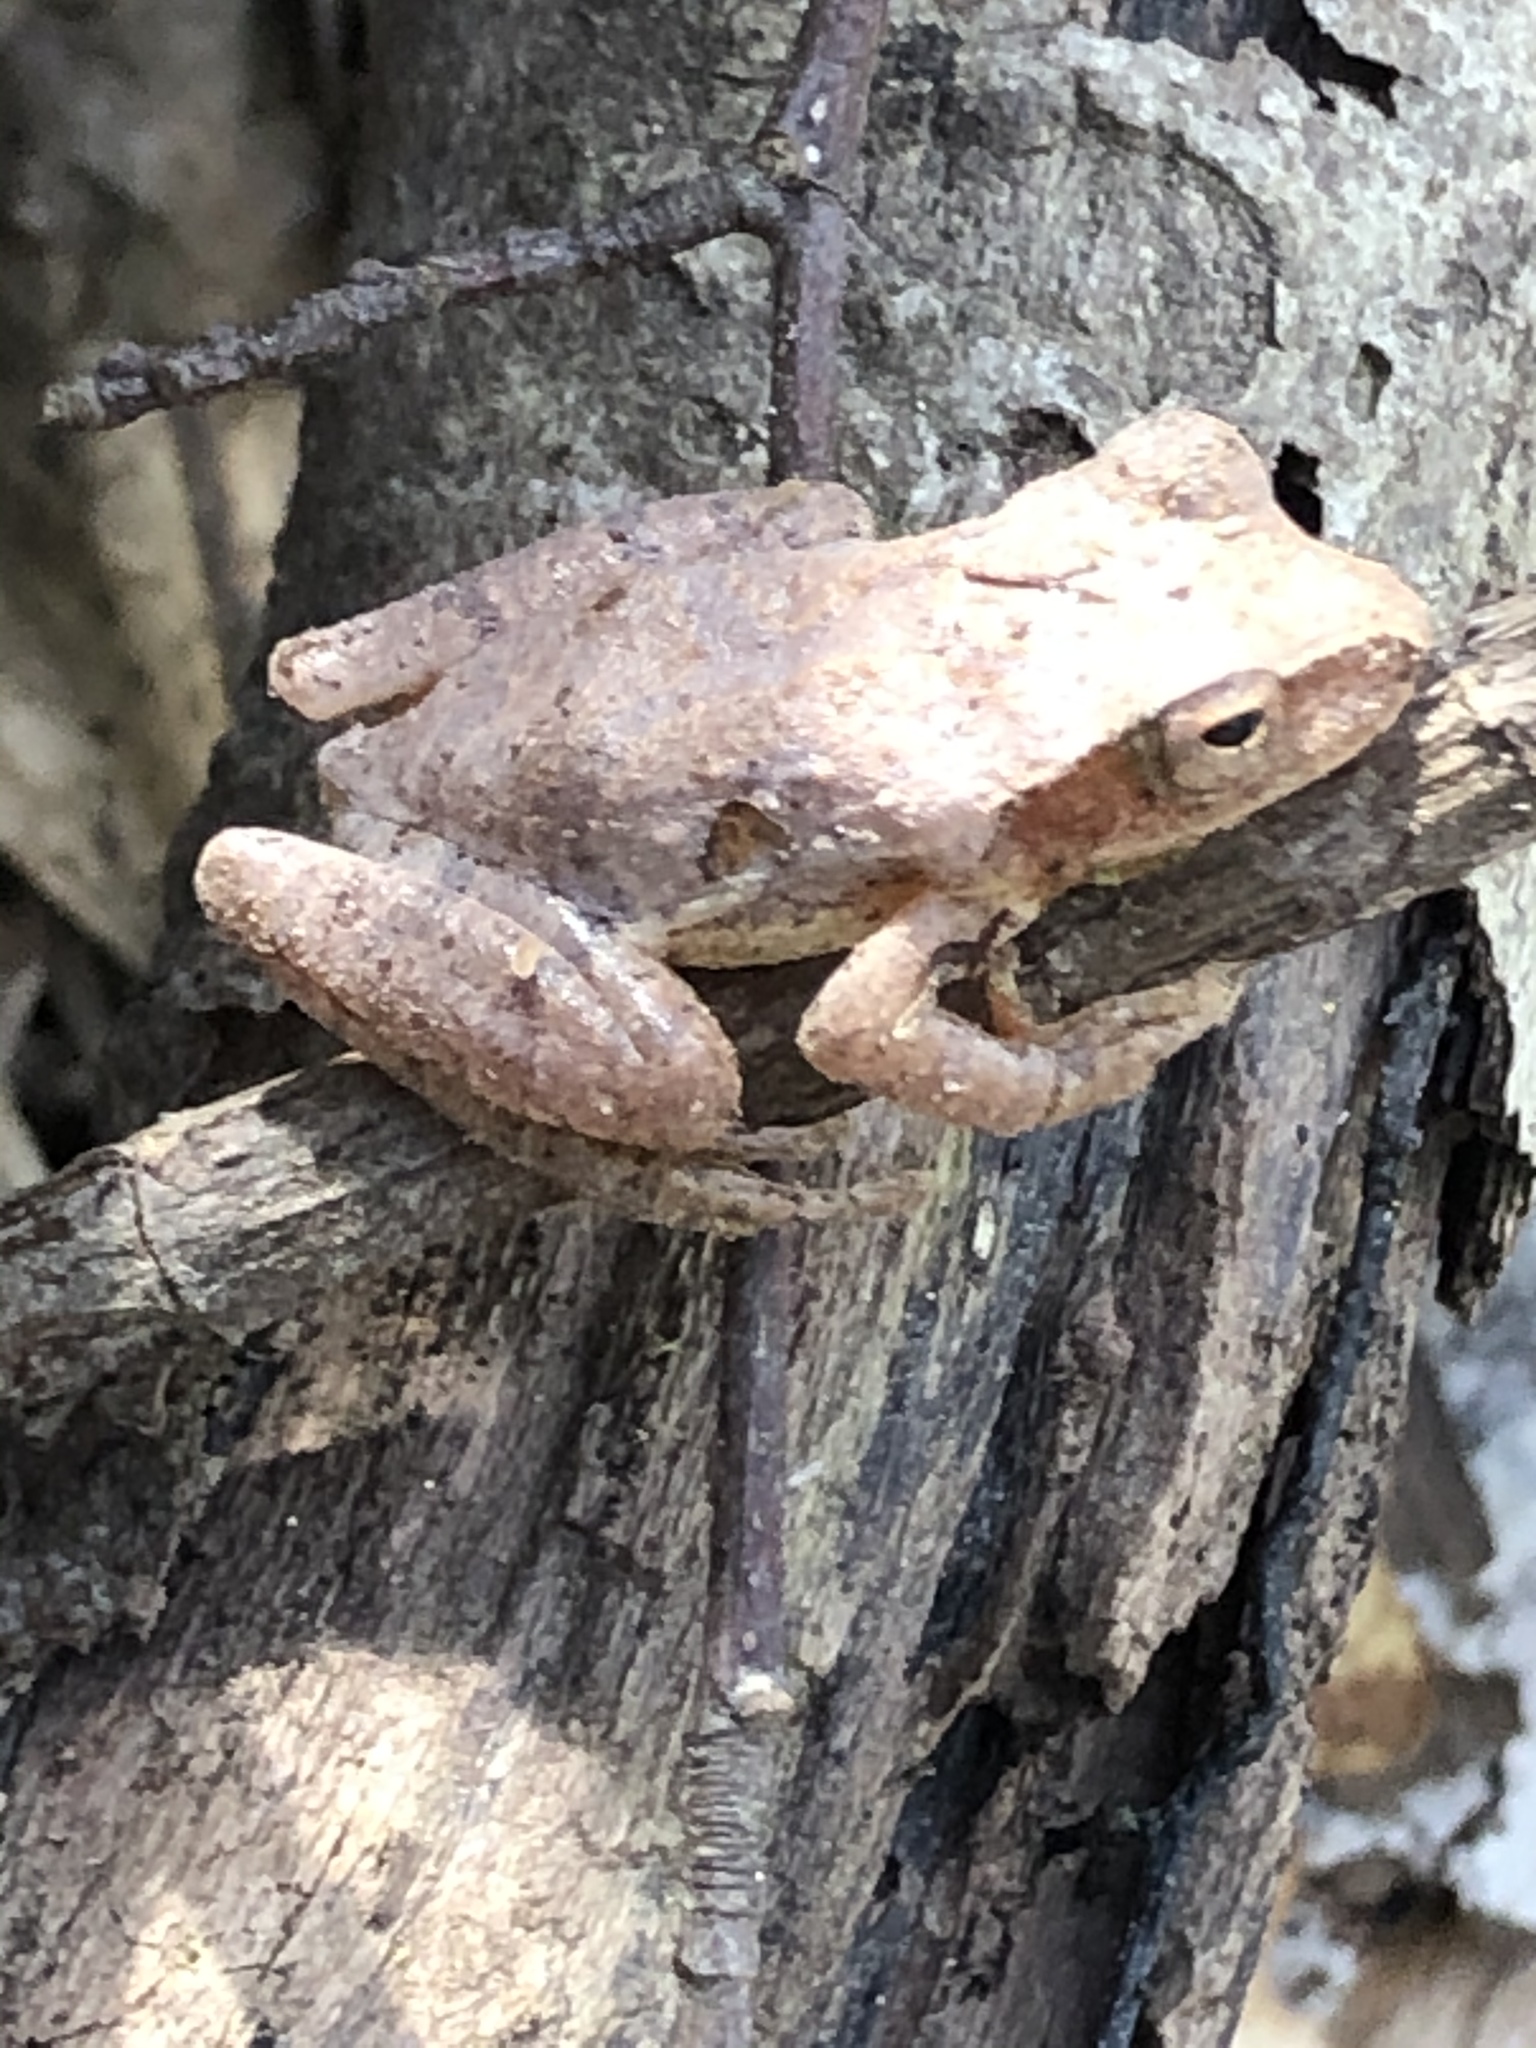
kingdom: Animalia
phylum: Chordata
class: Amphibia
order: Anura
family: Hylidae
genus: Pseudacris
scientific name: Pseudacris crucifer
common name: Spring peeper
